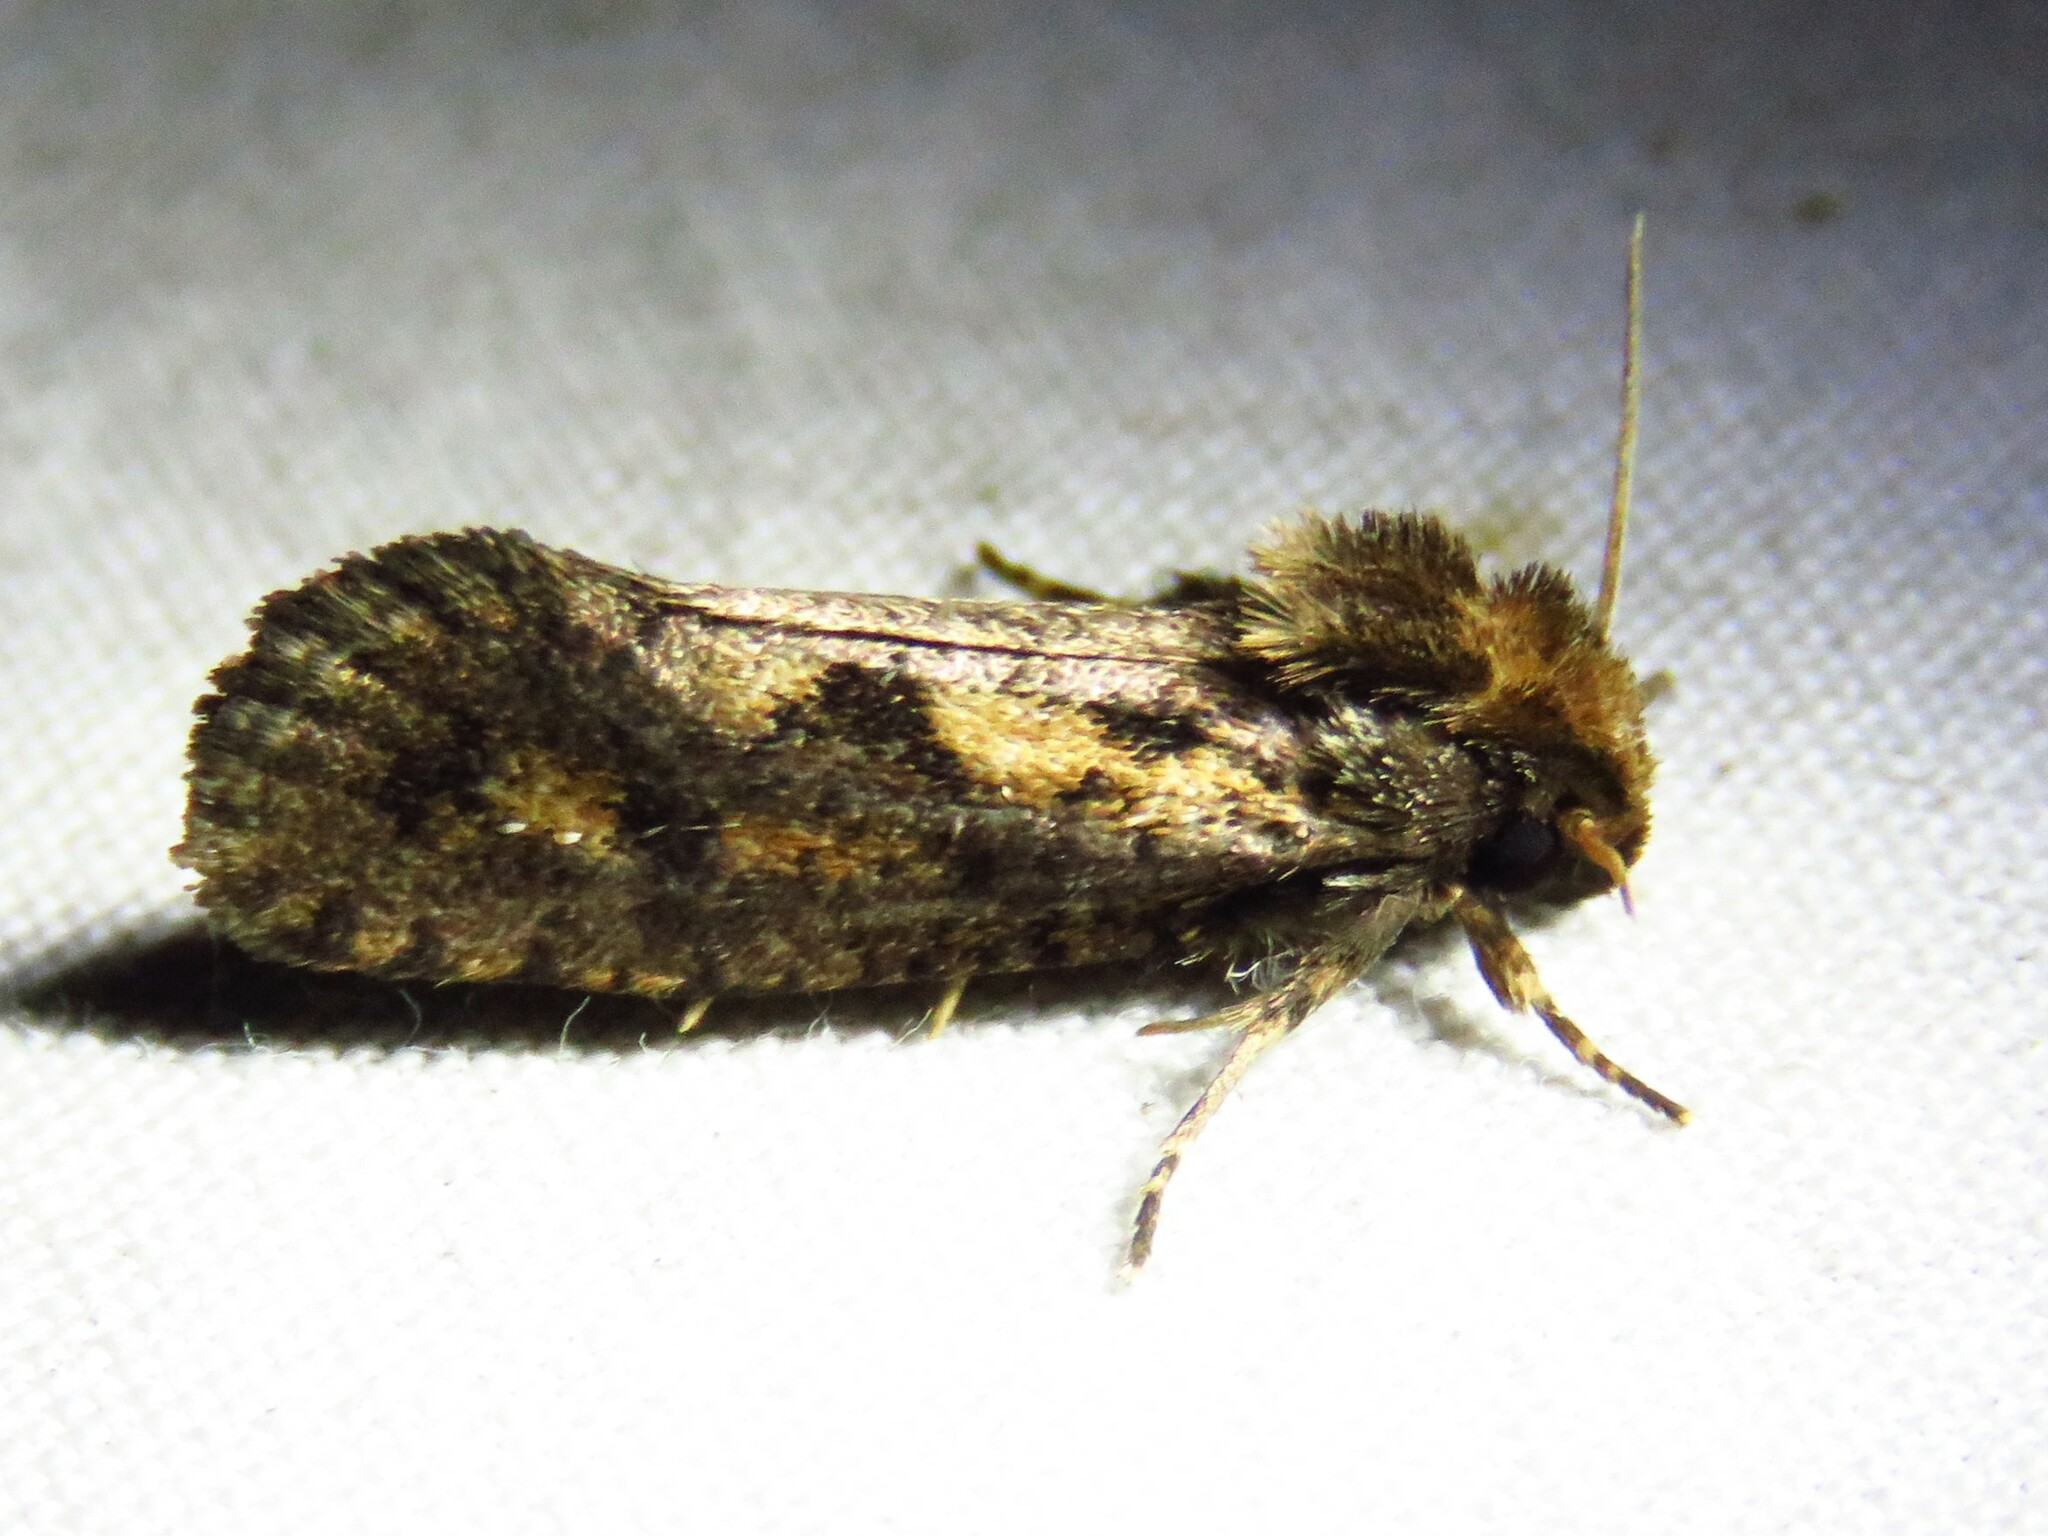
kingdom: Animalia
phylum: Arthropoda
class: Insecta
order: Lepidoptera
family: Tineidae
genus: Acrolophus
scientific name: Acrolophus popeanella
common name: Clemens' grass tubeworm moth
